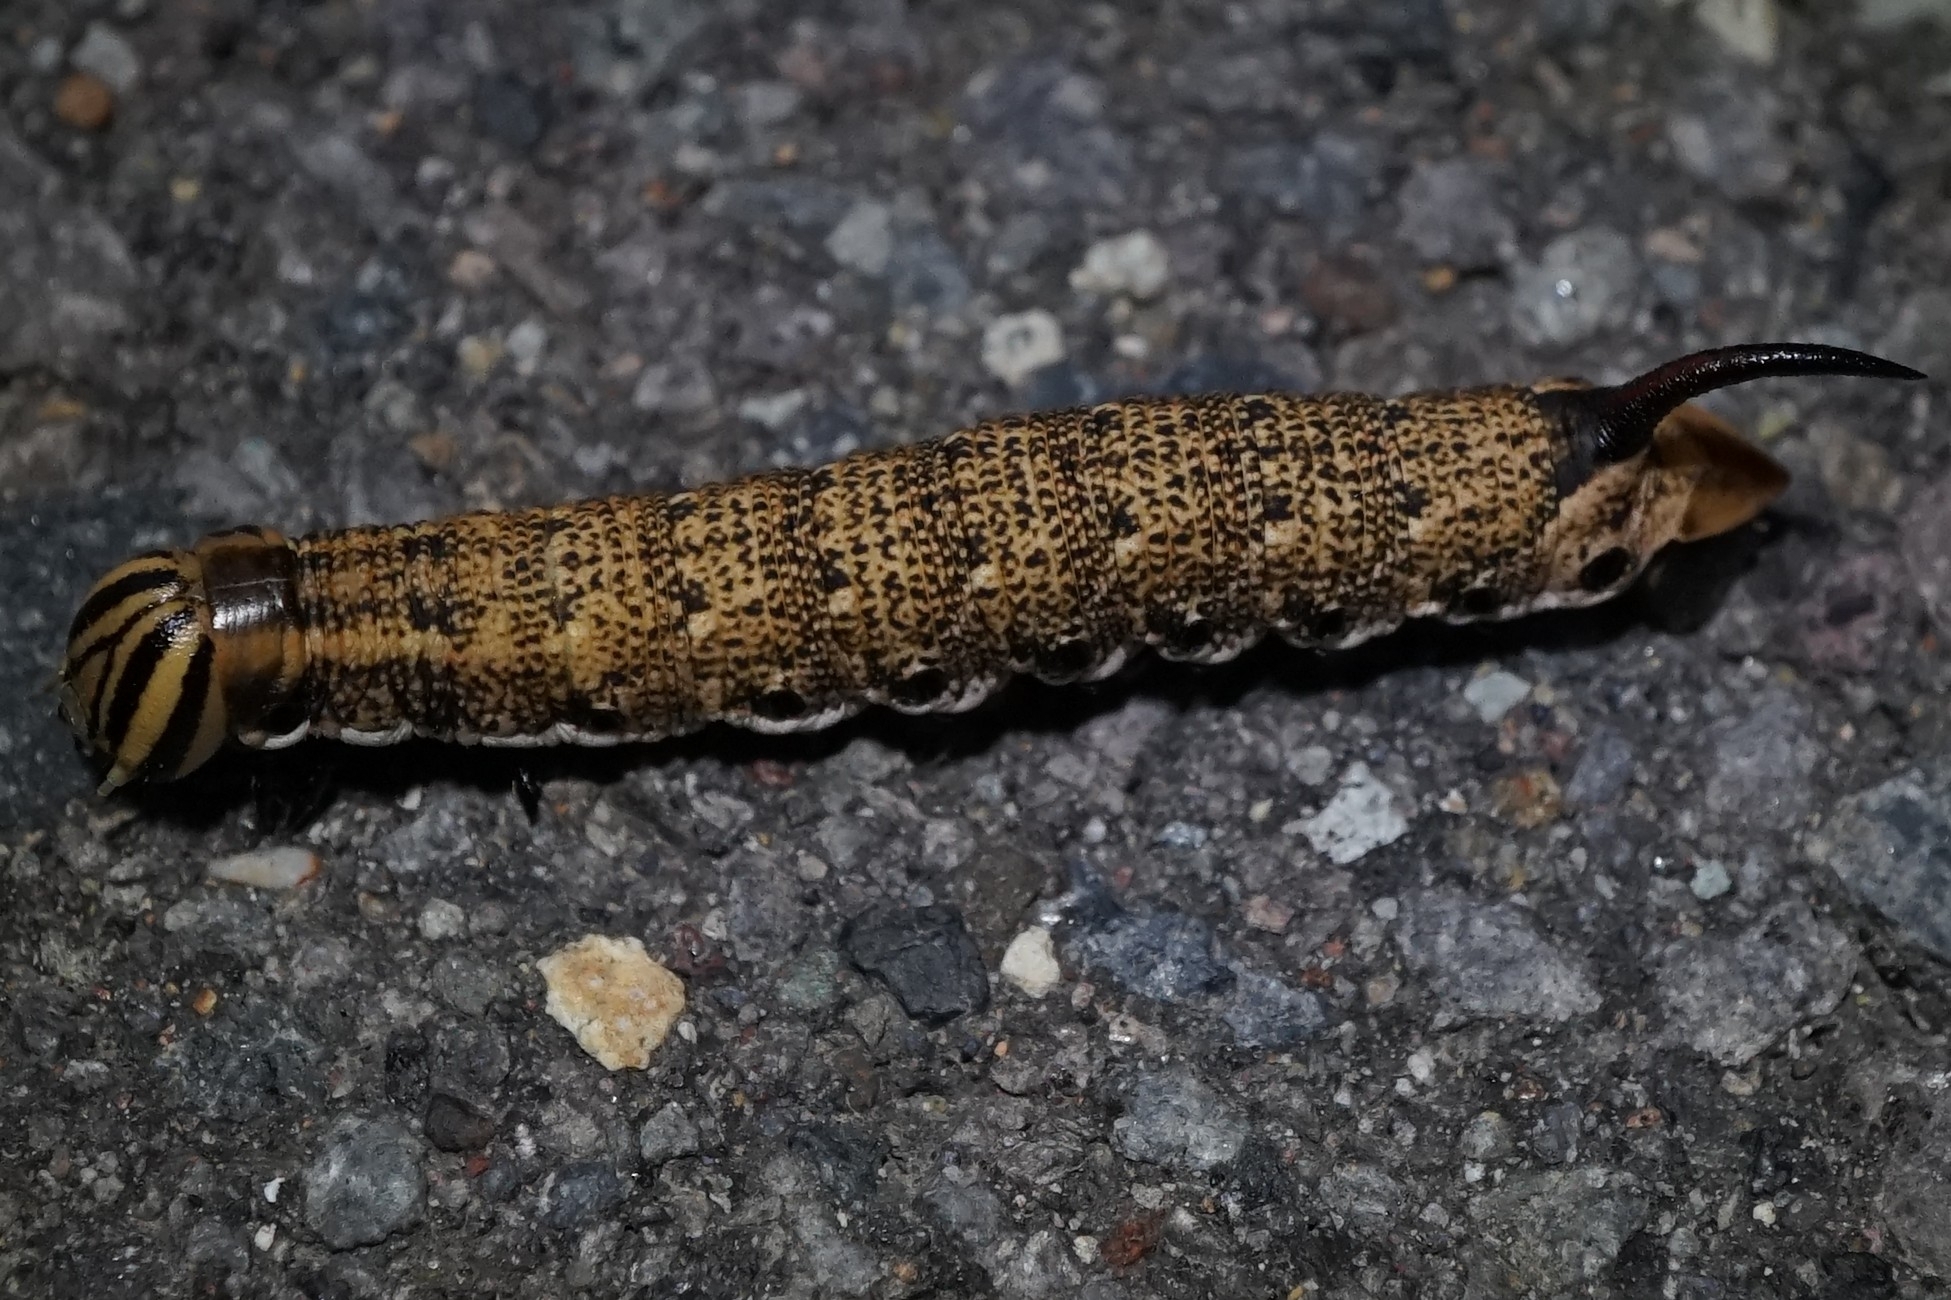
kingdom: Animalia
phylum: Arthropoda
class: Insecta
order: Lepidoptera
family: Sphingidae
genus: Agrius
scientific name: Agrius convolvuli
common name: Convolvulus hawkmoth
